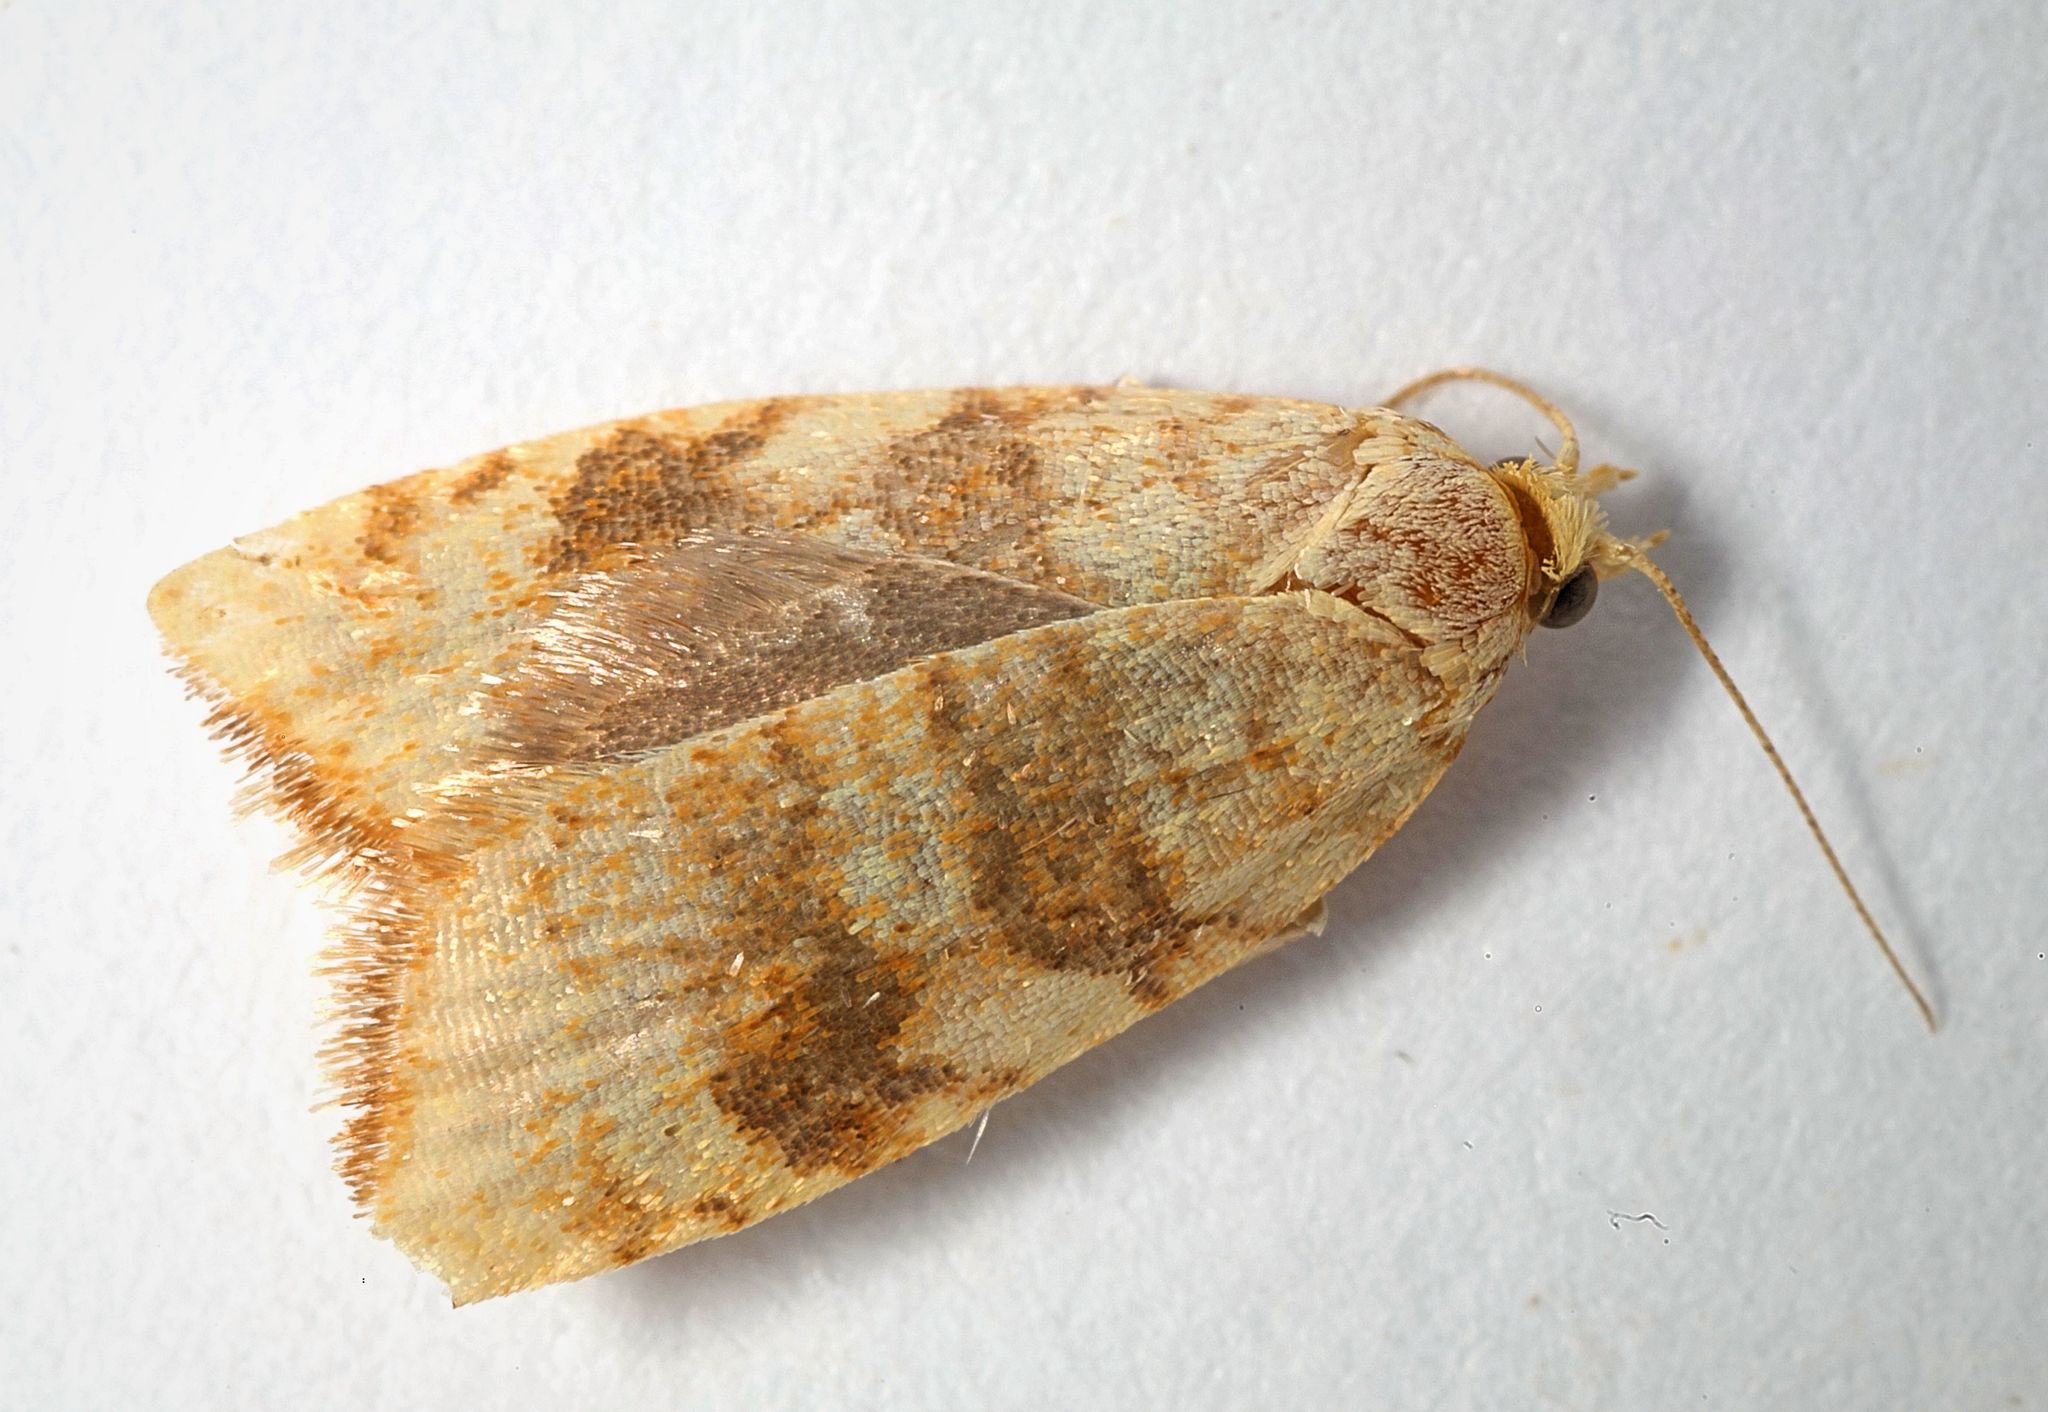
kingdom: Animalia
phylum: Arthropoda
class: Insecta
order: Lepidoptera
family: Tortricidae
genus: Aleimma
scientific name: Aleimma loeflingiana
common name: Yellow oak button
